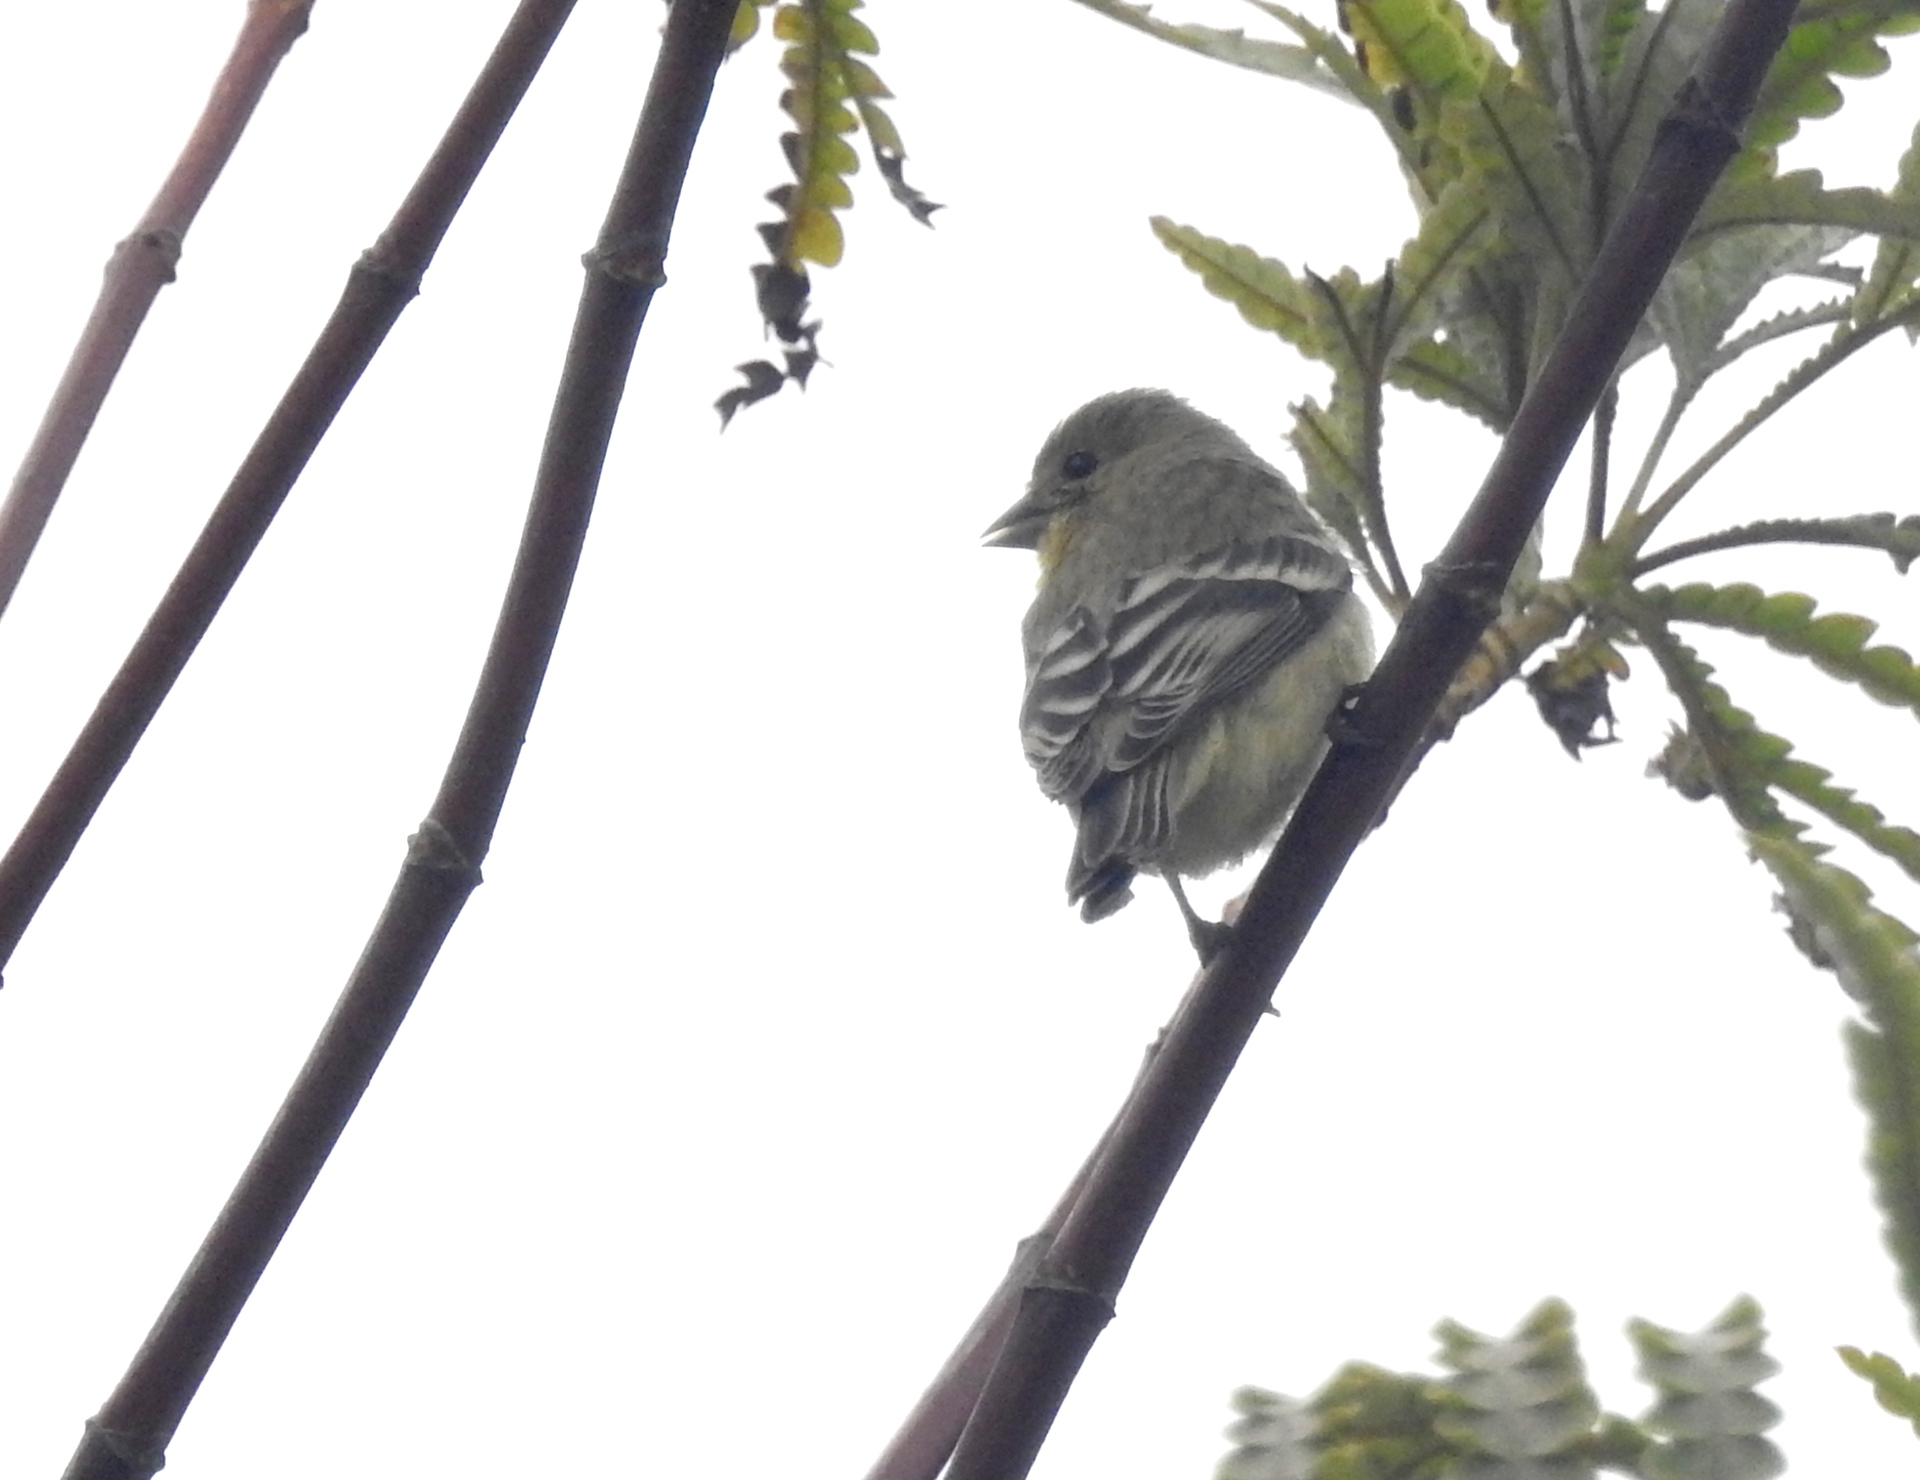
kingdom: Animalia
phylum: Chordata
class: Aves
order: Passeriformes
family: Fringillidae
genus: Spinus
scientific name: Spinus psaltria
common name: Lesser goldfinch
